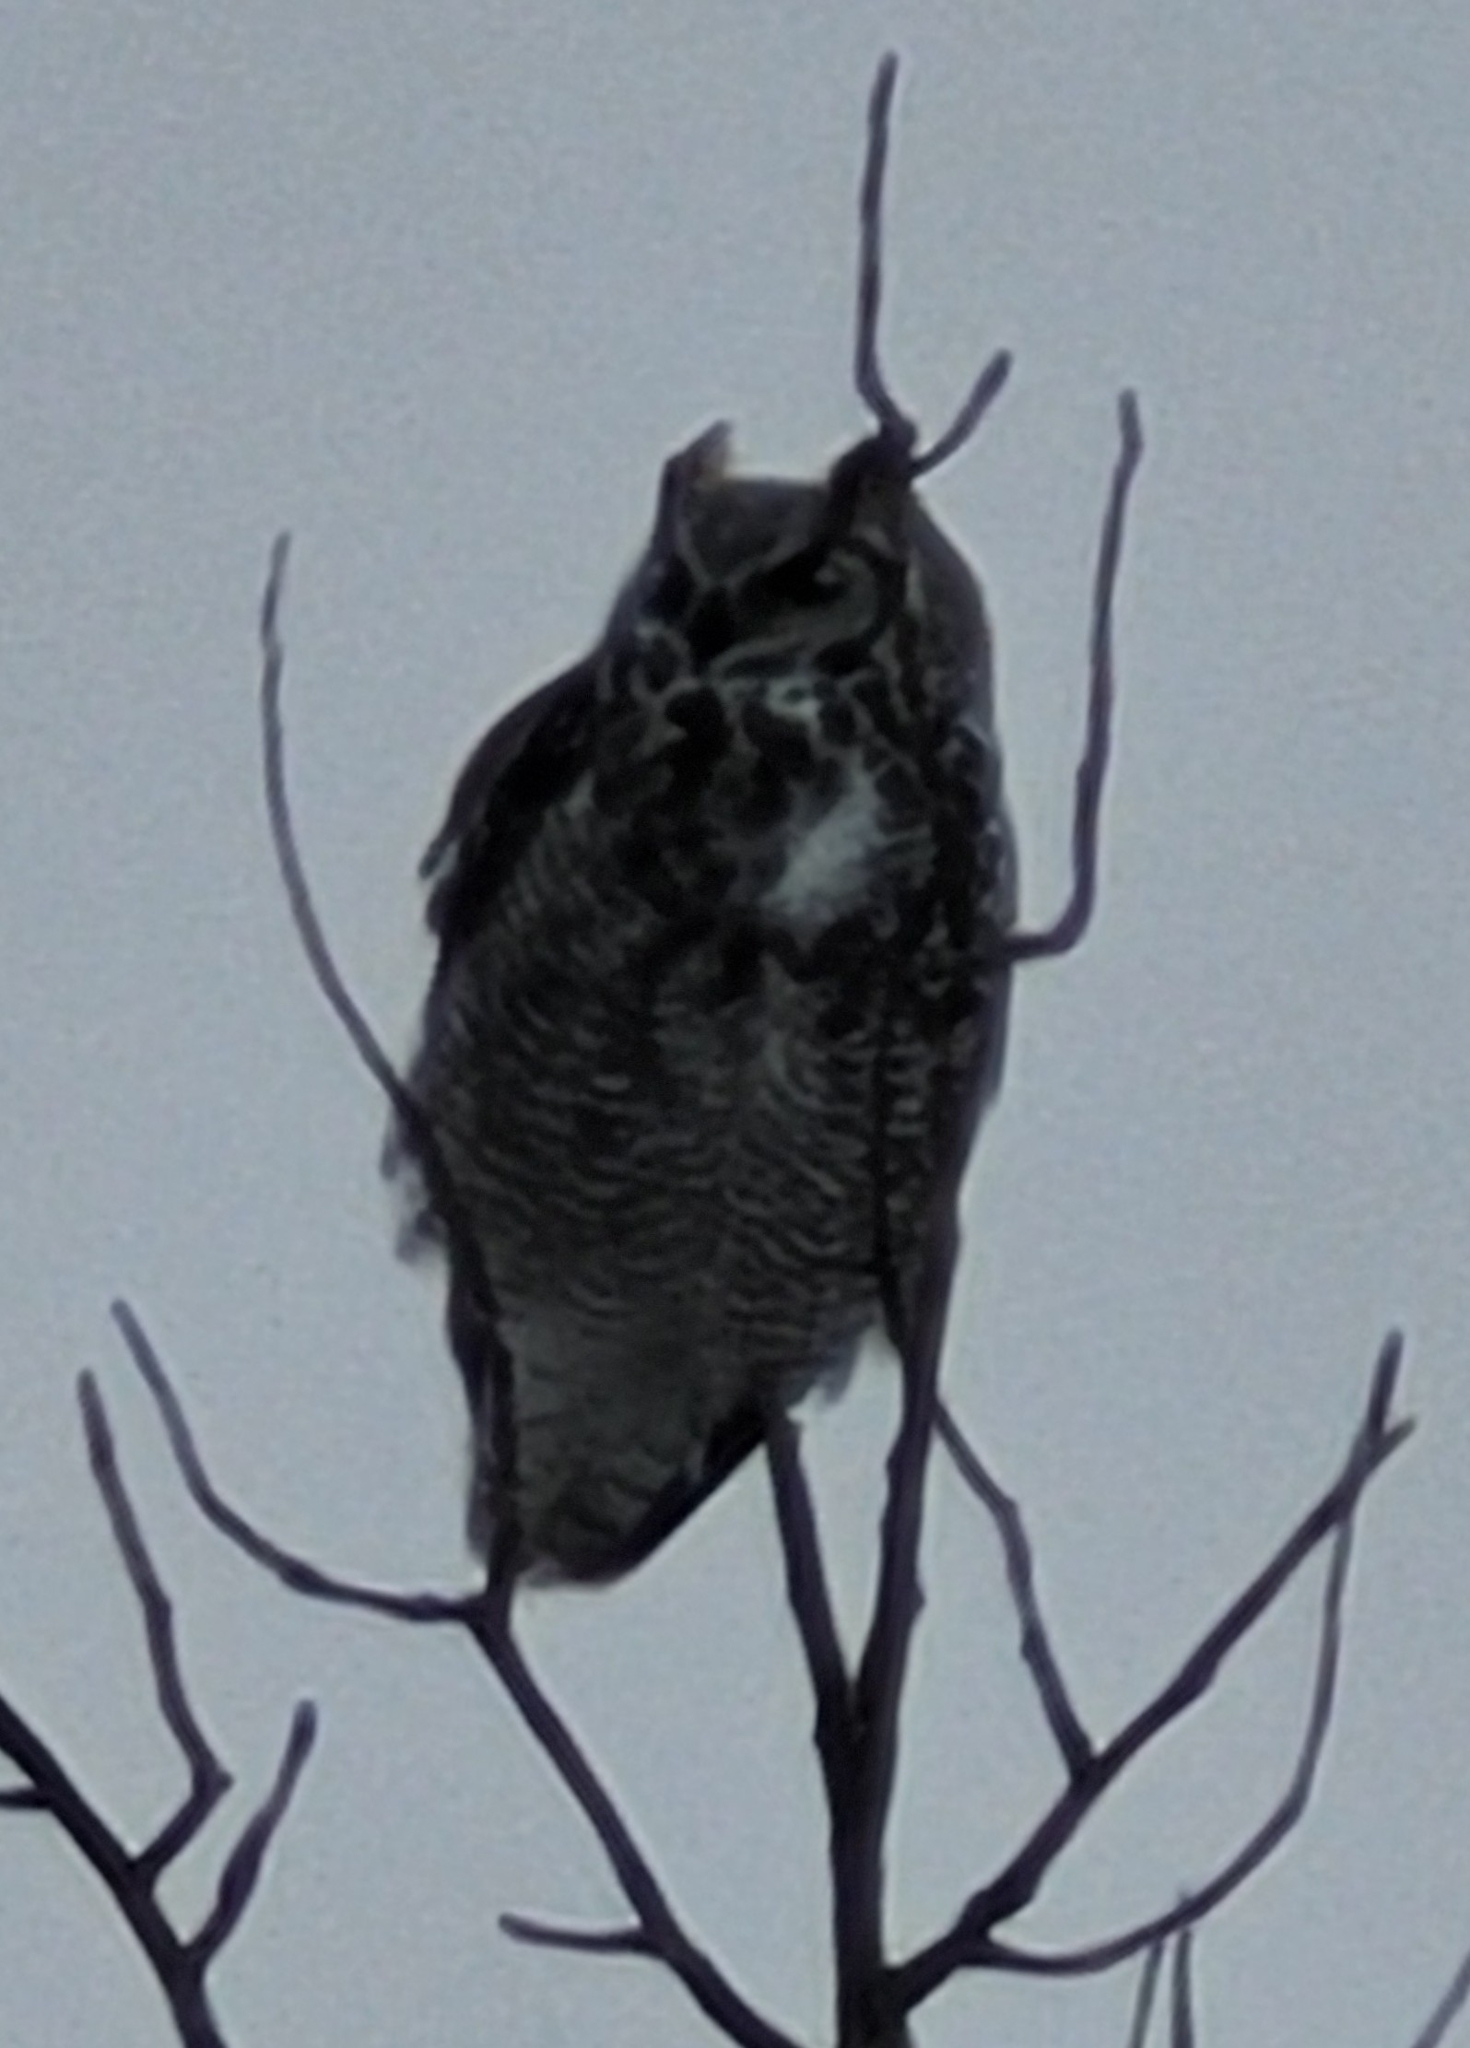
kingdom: Animalia
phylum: Chordata
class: Aves
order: Strigiformes
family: Strigidae
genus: Bubo
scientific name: Bubo virginianus
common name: Great horned owl
